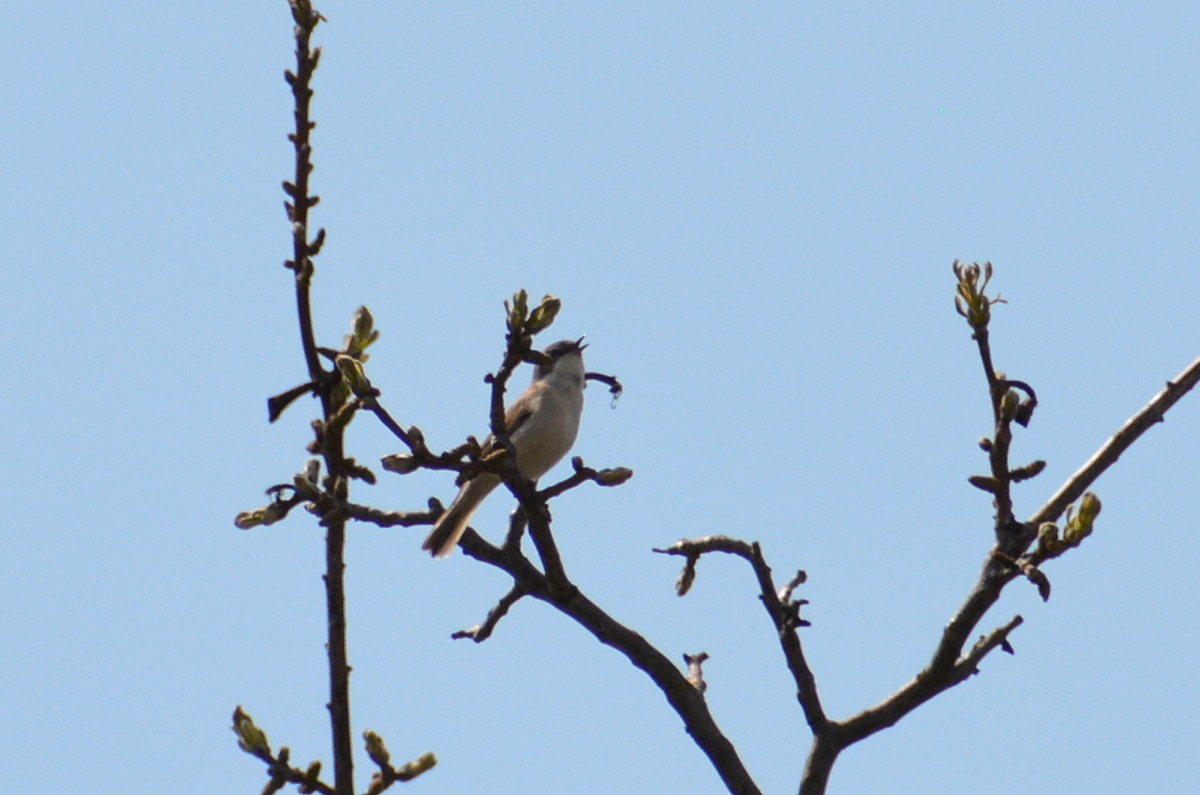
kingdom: Animalia
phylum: Chordata
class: Aves
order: Passeriformes
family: Sylviidae
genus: Sylvia
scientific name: Sylvia curruca
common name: Lesser whitethroat
